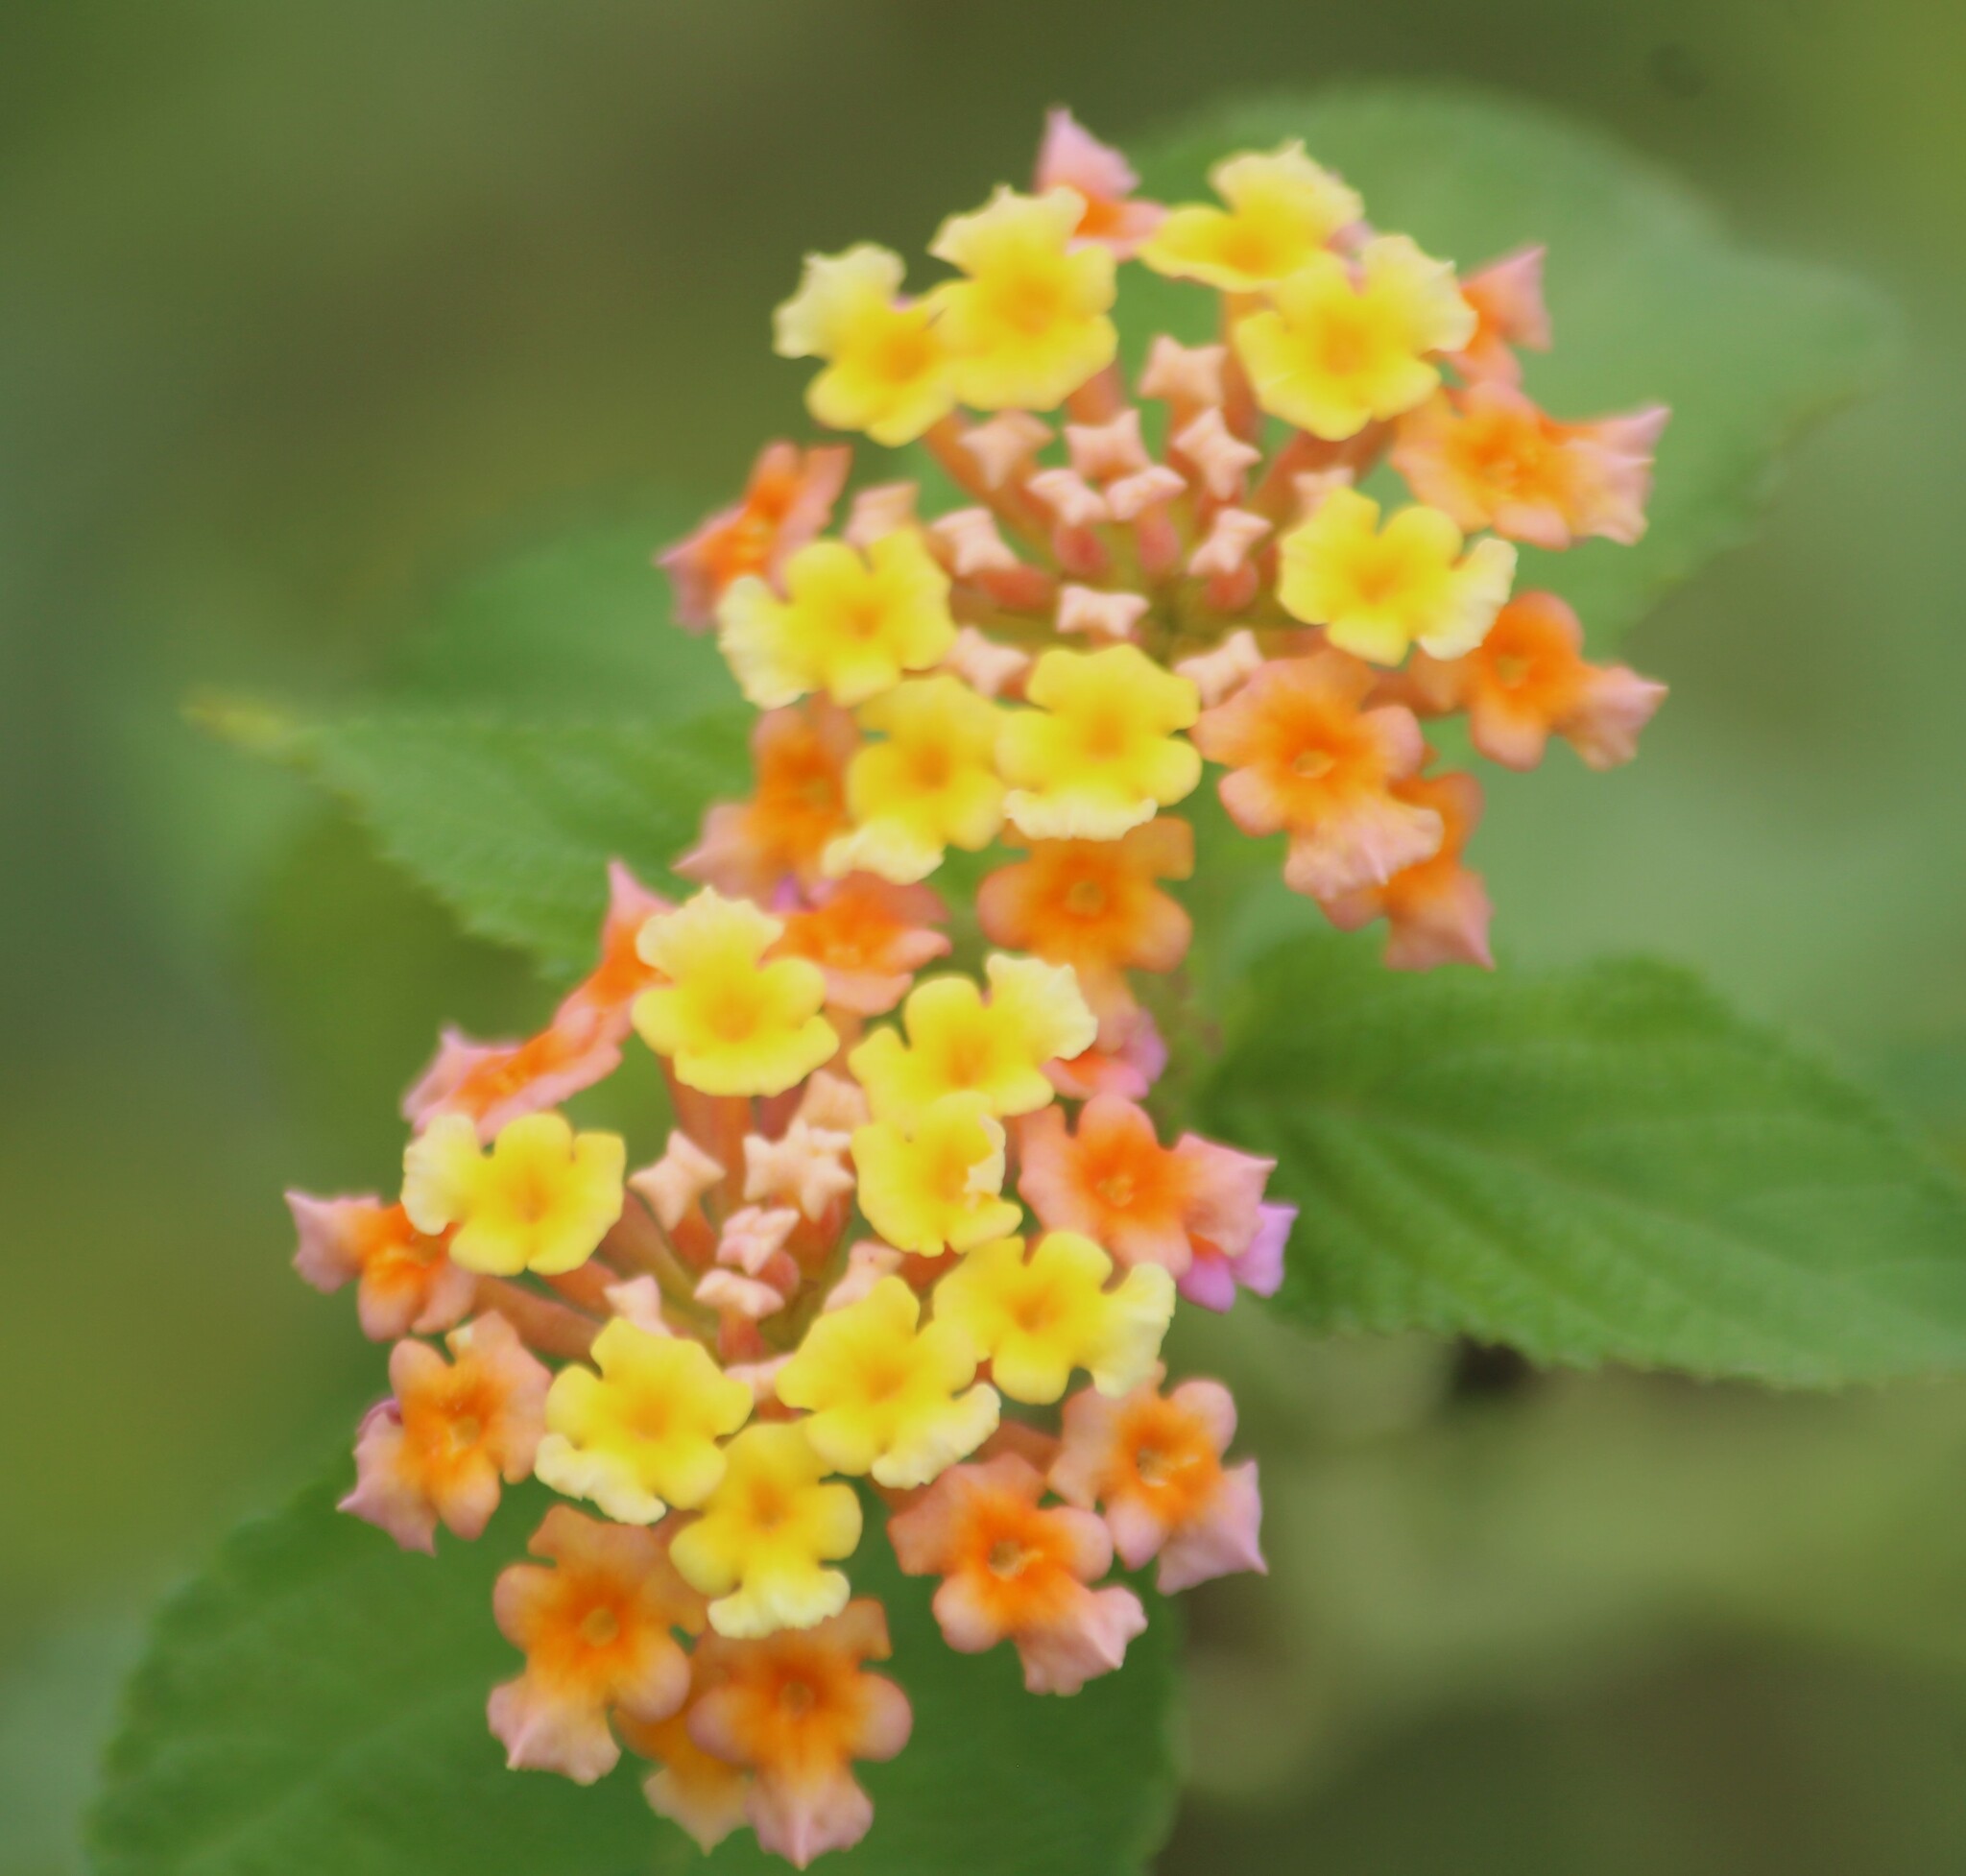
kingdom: Plantae
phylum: Tracheophyta
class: Magnoliopsida
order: Lamiales
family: Verbenaceae
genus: Lantana
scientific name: Lantana camara
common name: Lantana
